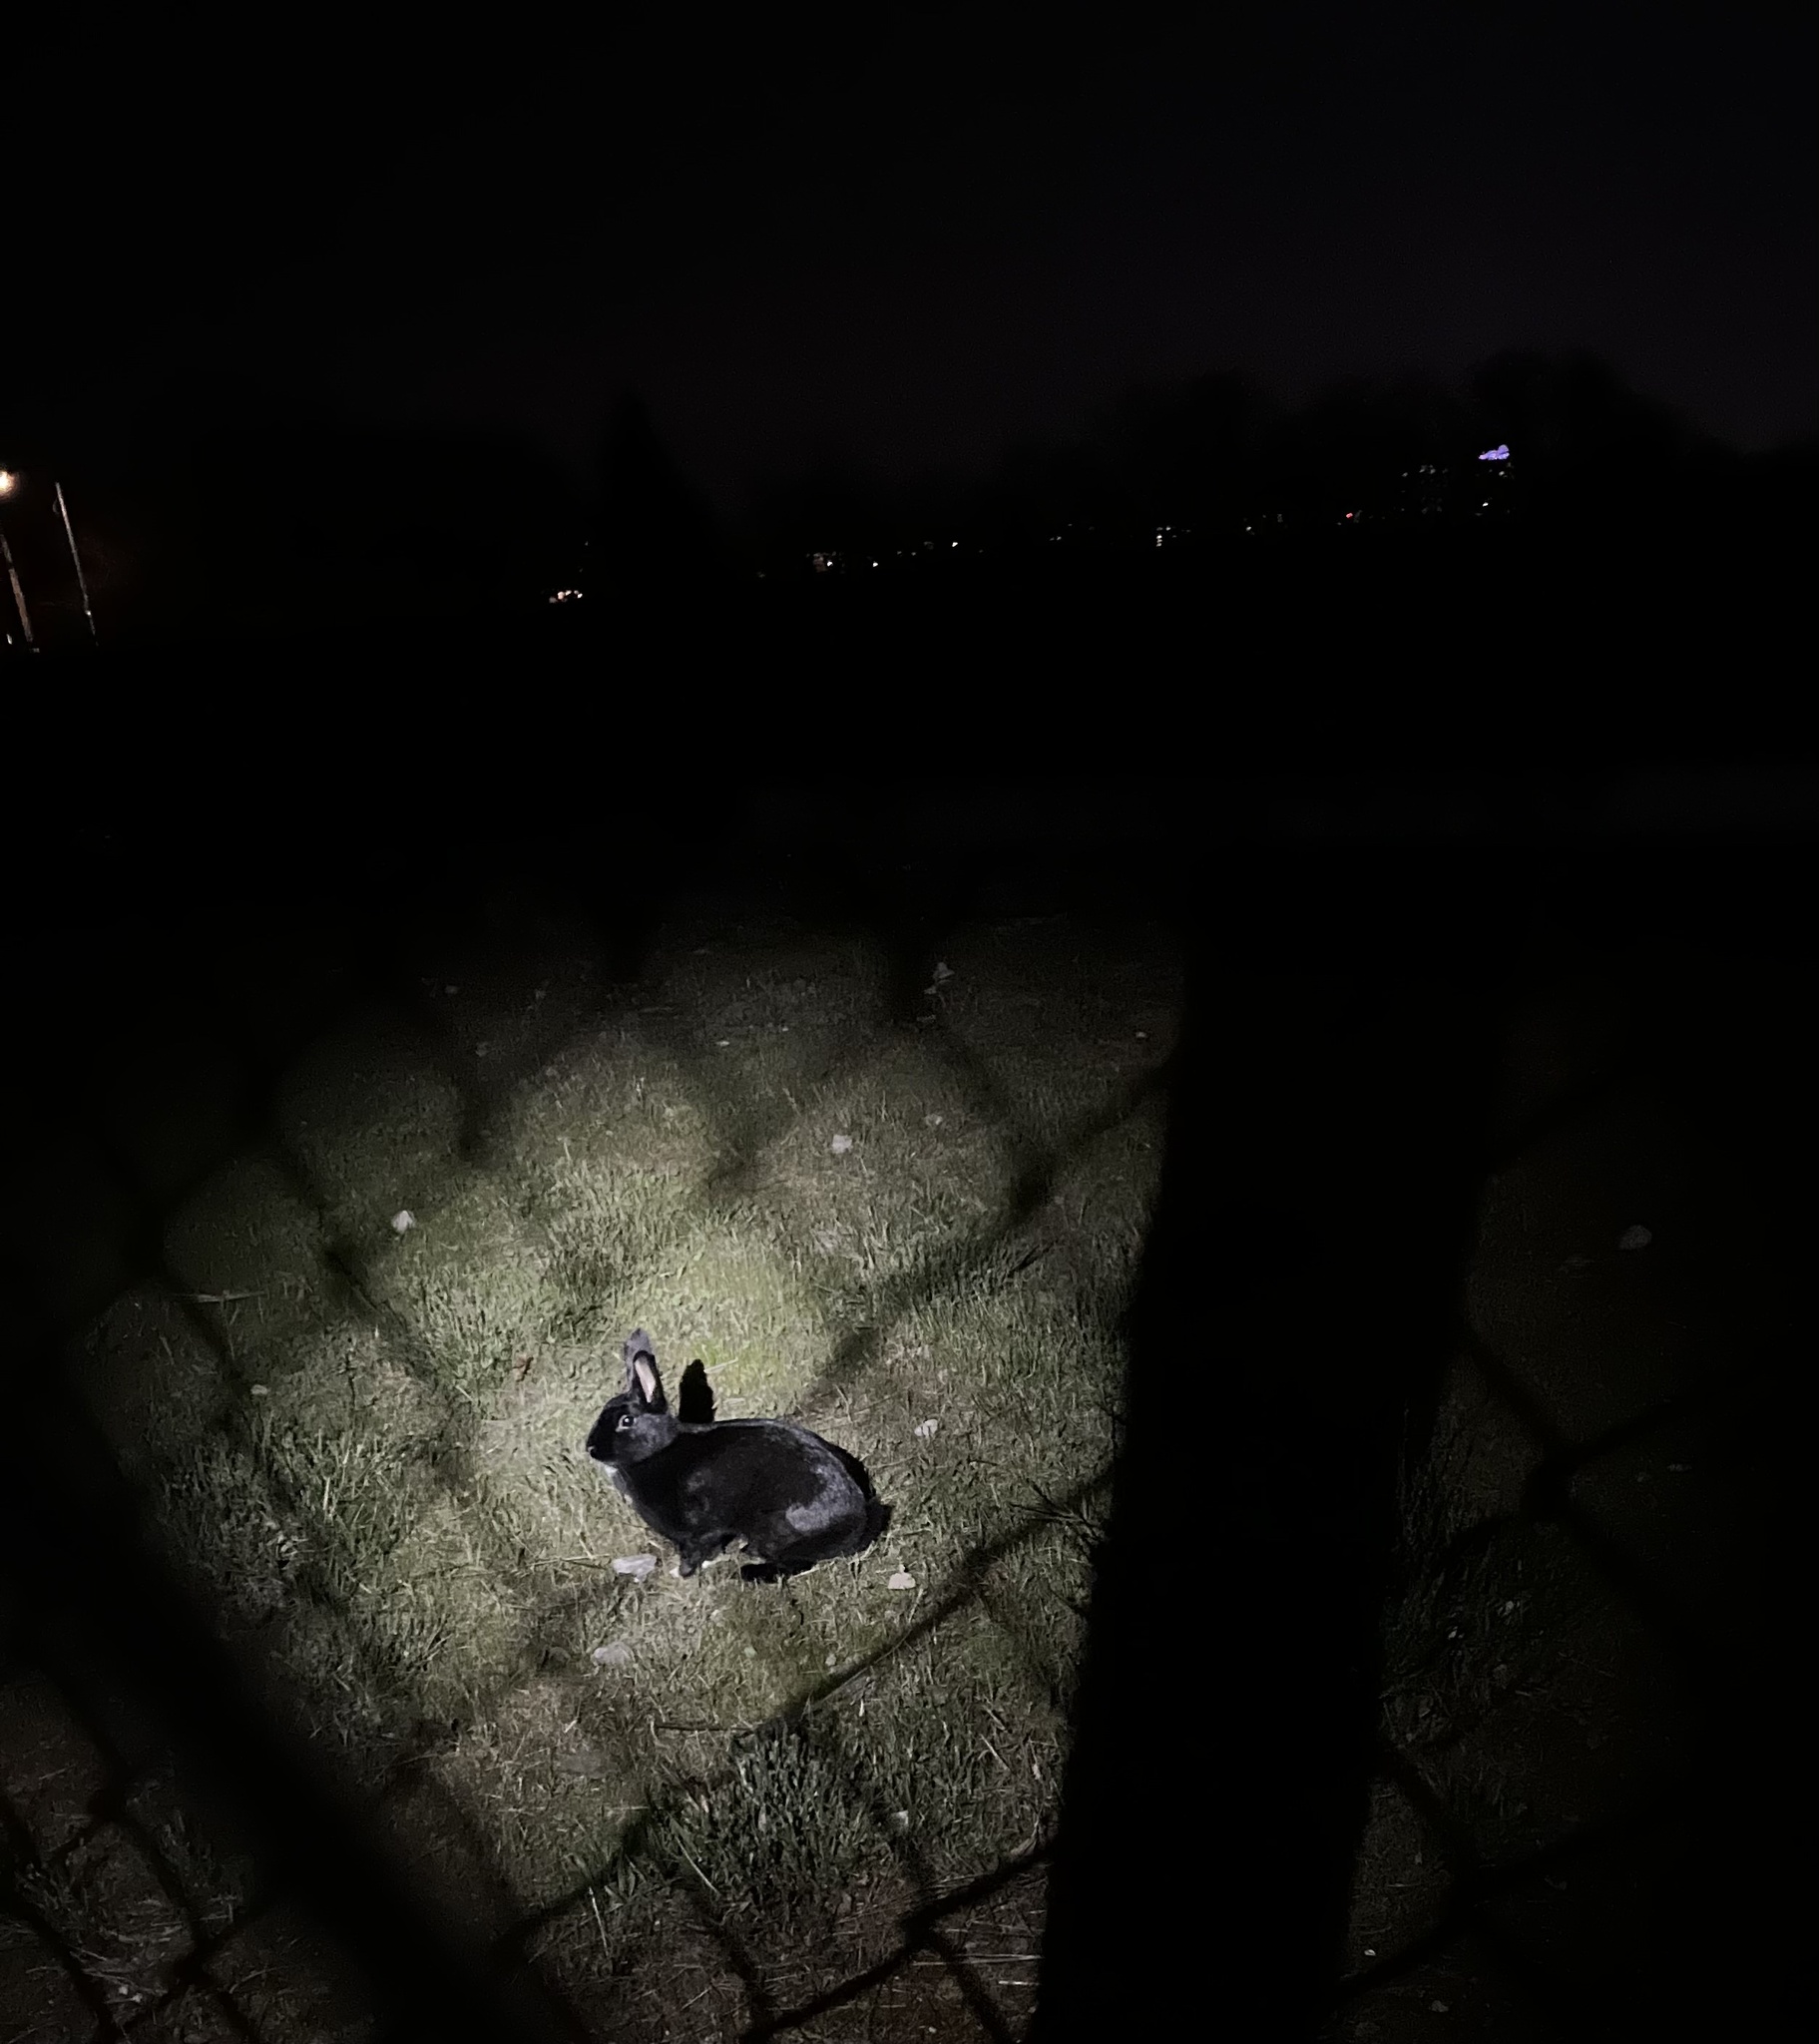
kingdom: Animalia
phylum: Chordata
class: Mammalia
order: Lagomorpha
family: Leporidae
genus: Oryctolagus
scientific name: Oryctolagus cuniculus
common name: European rabbit
